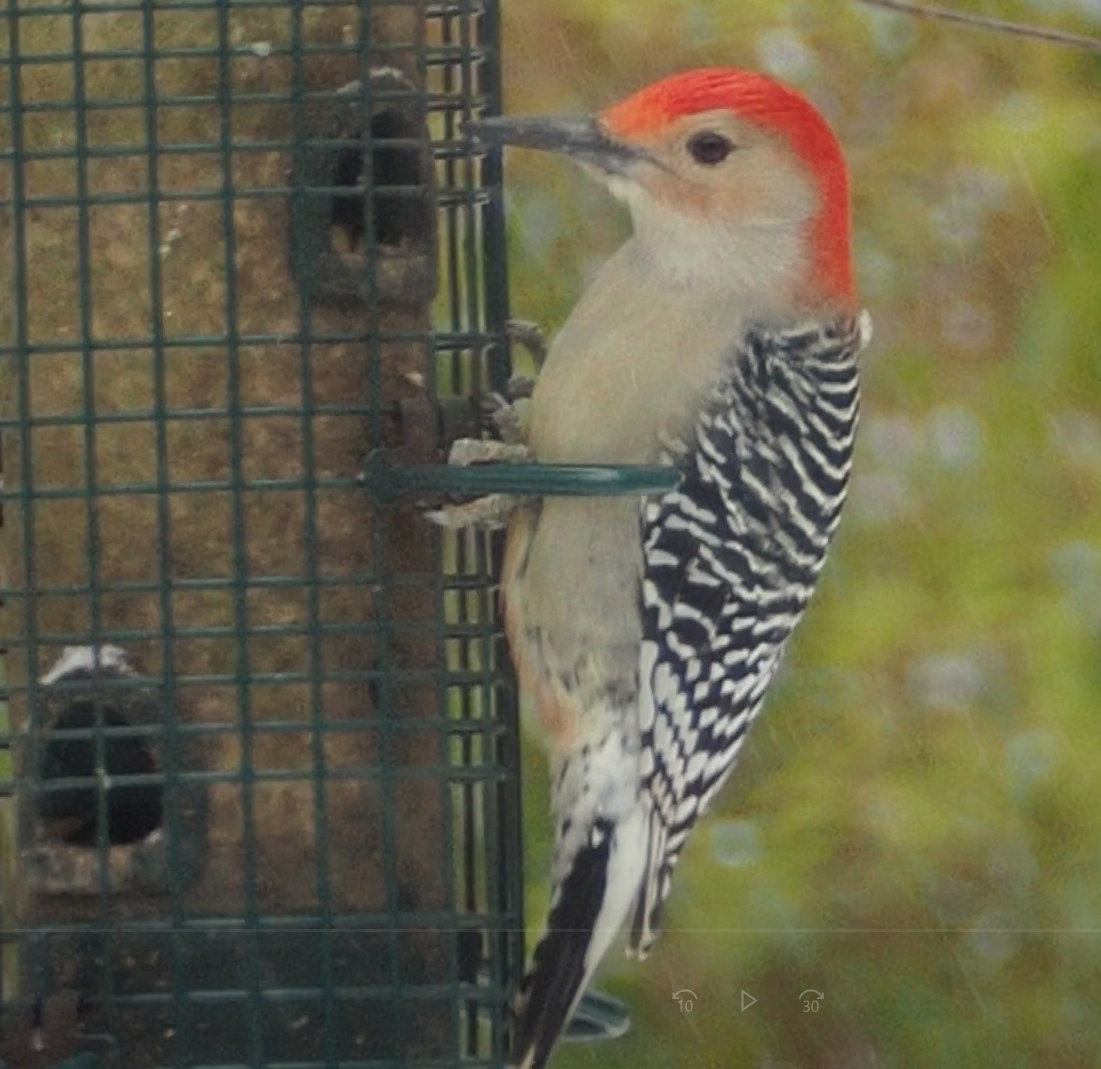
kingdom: Animalia
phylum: Chordata
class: Aves
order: Piciformes
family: Picidae
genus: Melanerpes
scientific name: Melanerpes carolinus
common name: Red-bellied woodpecker
